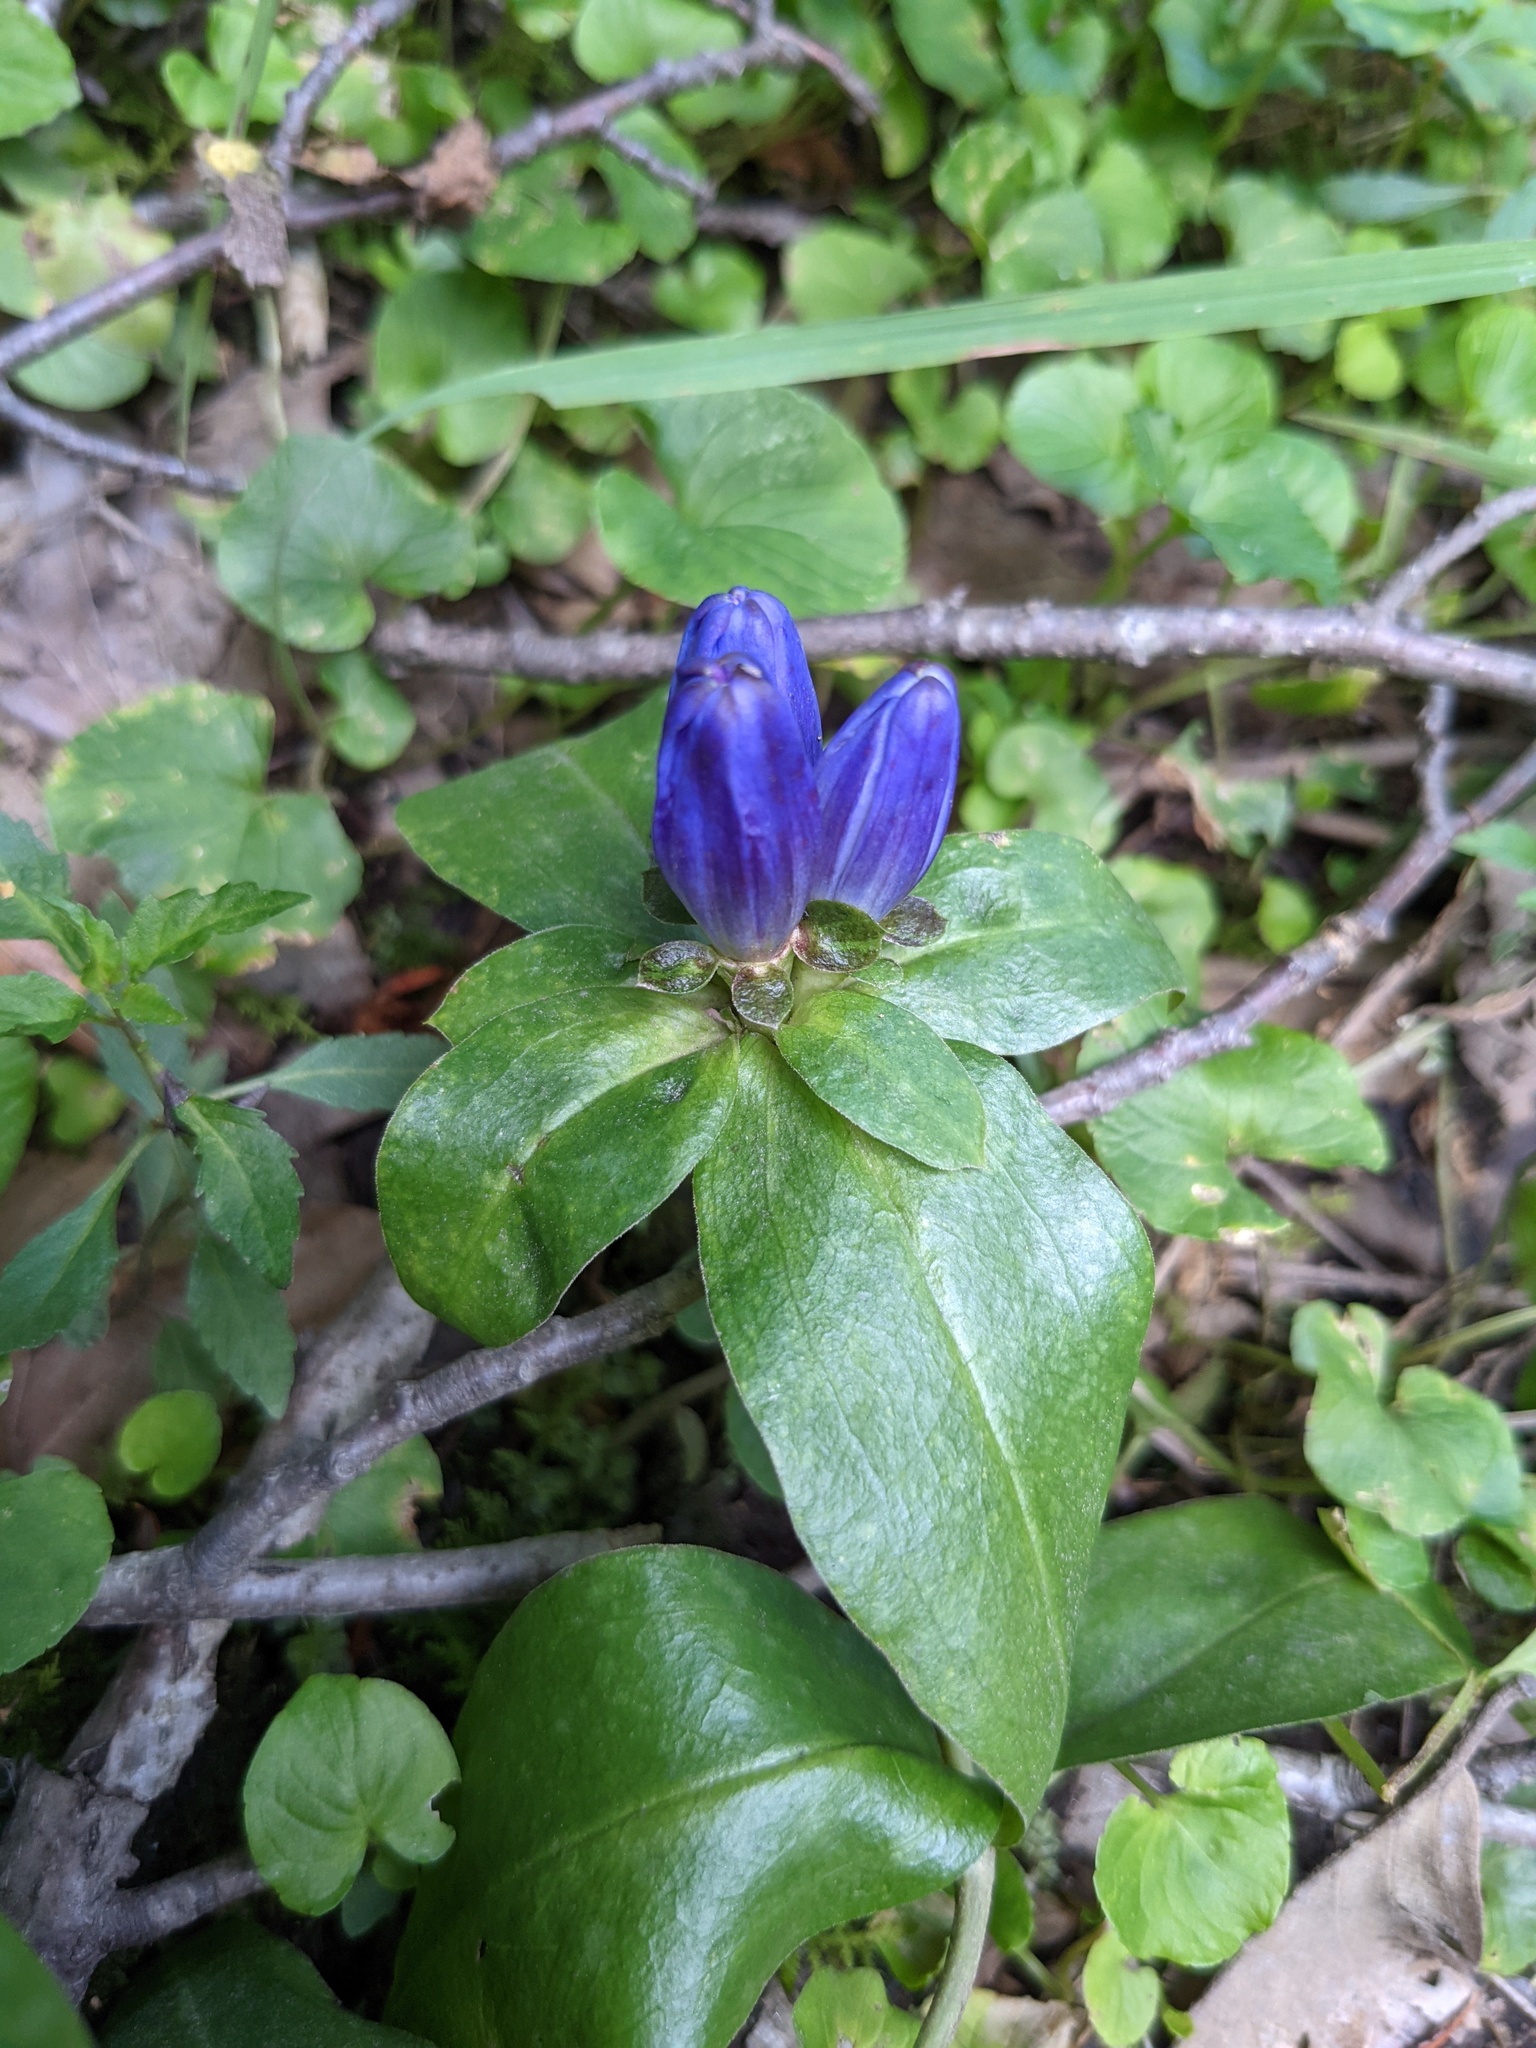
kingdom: Plantae
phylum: Tracheophyta
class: Magnoliopsida
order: Gentianales
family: Gentianaceae
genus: Gentiana
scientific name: Gentiana clausa
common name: Blind gentian
